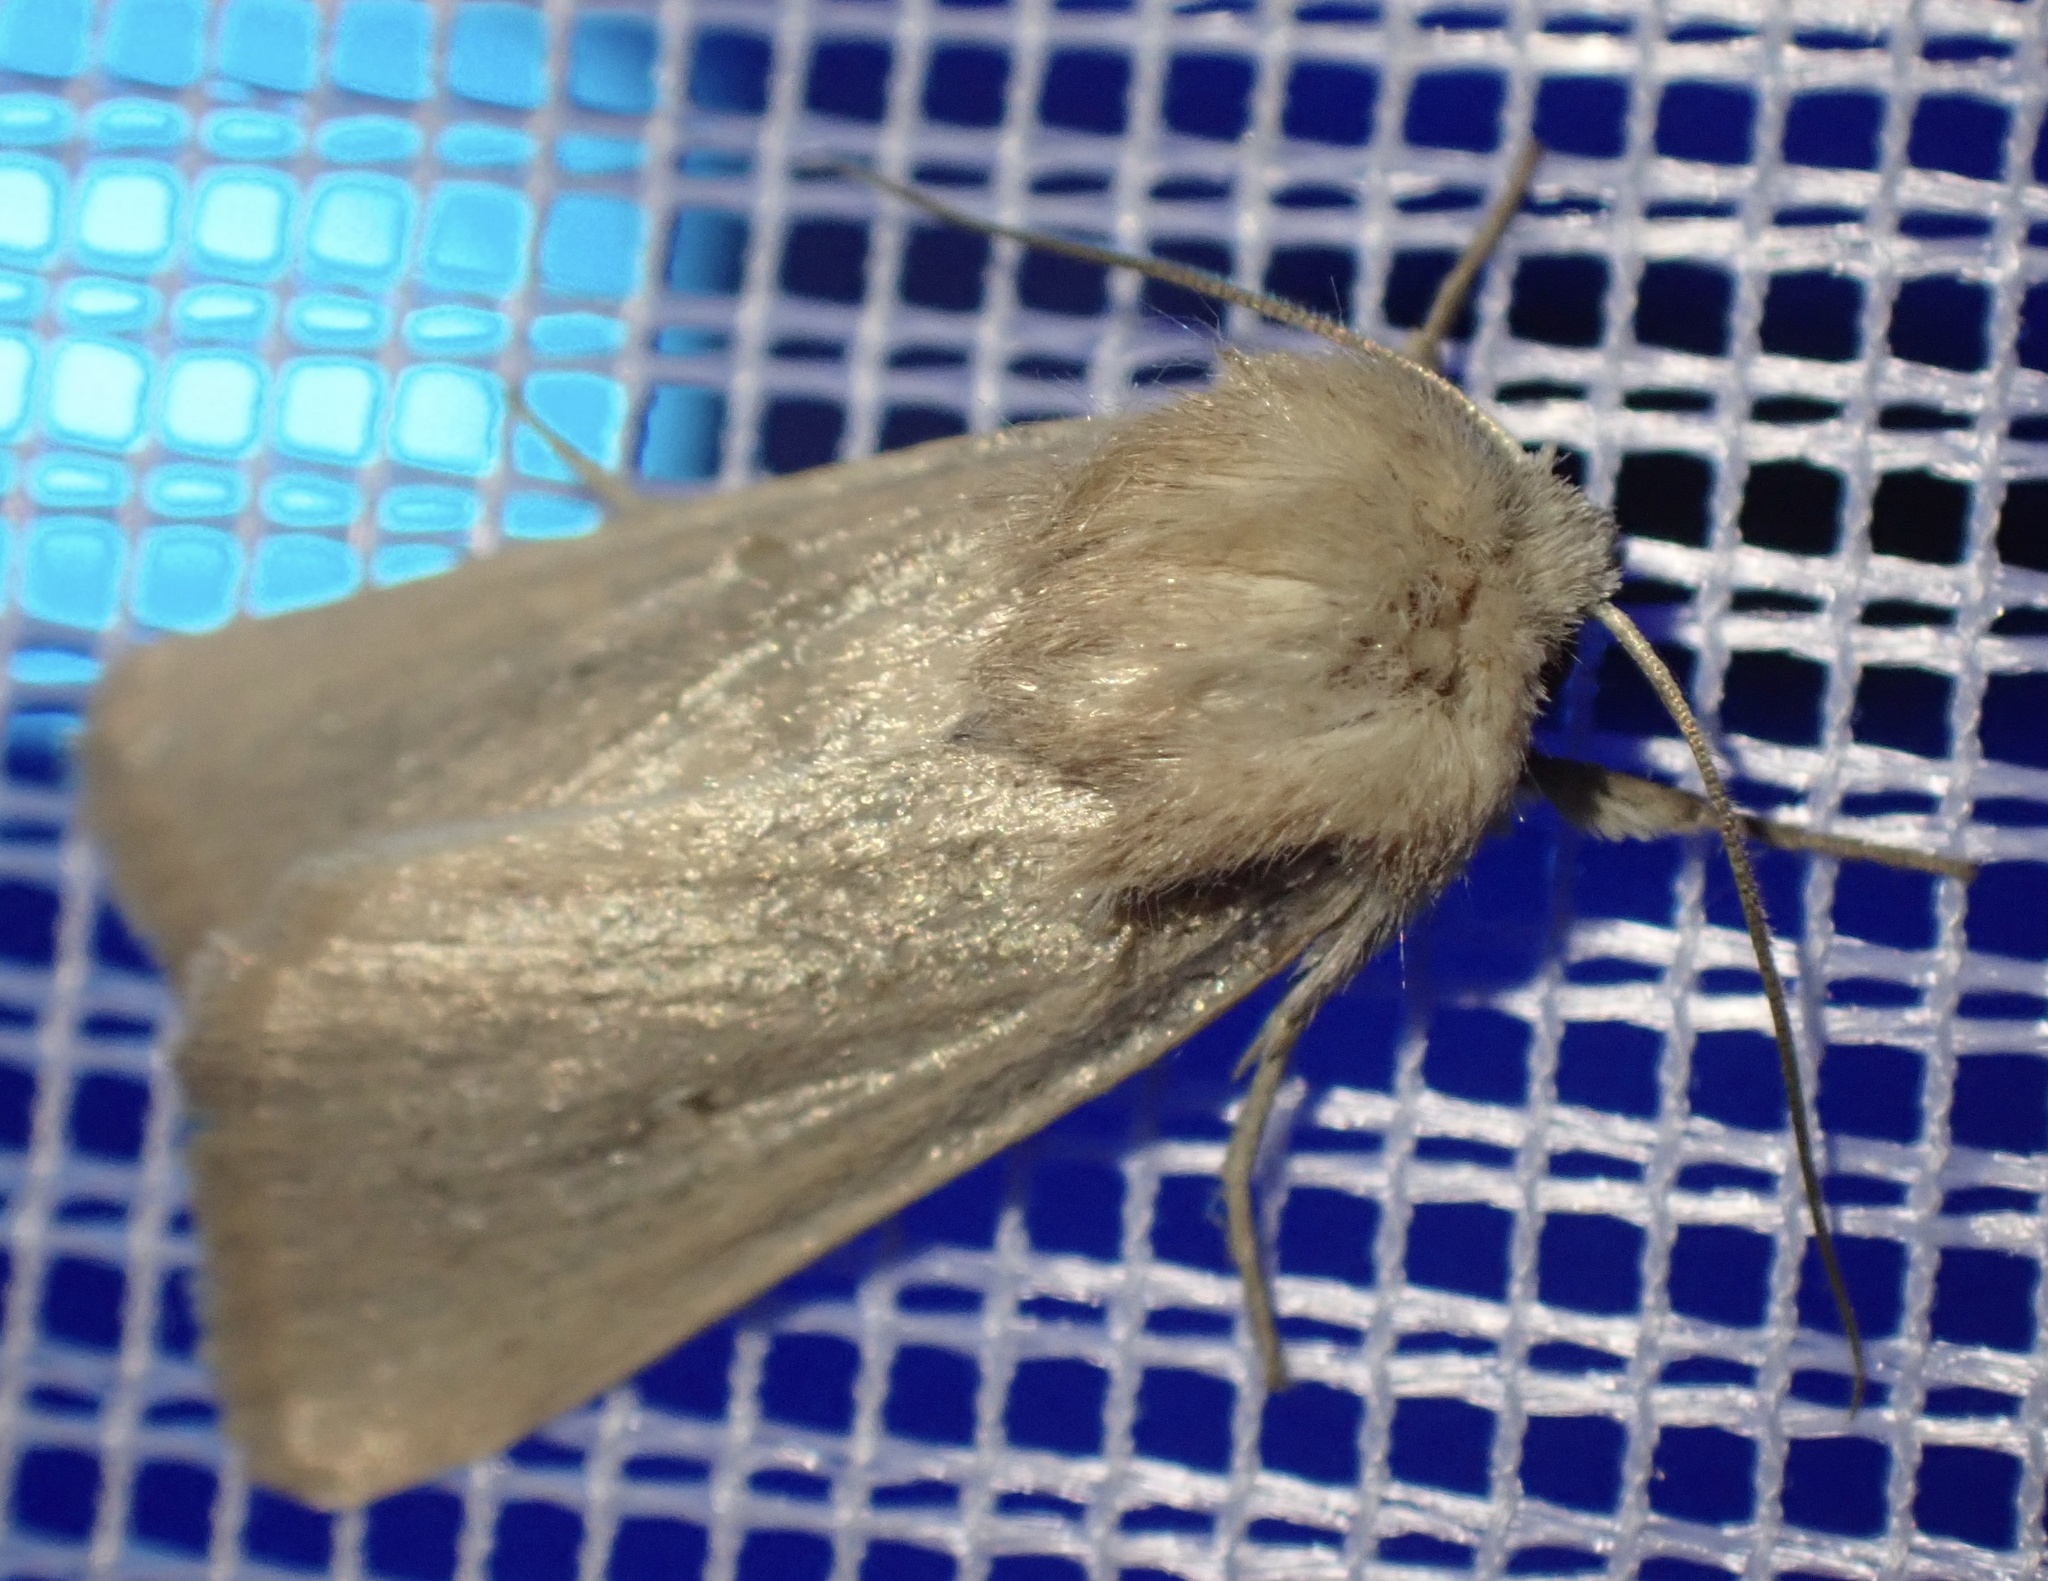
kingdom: Animalia
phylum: Arthropoda
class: Insecta
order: Lepidoptera
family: Noctuidae
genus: Mythimna
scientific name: Mythimna sicula
